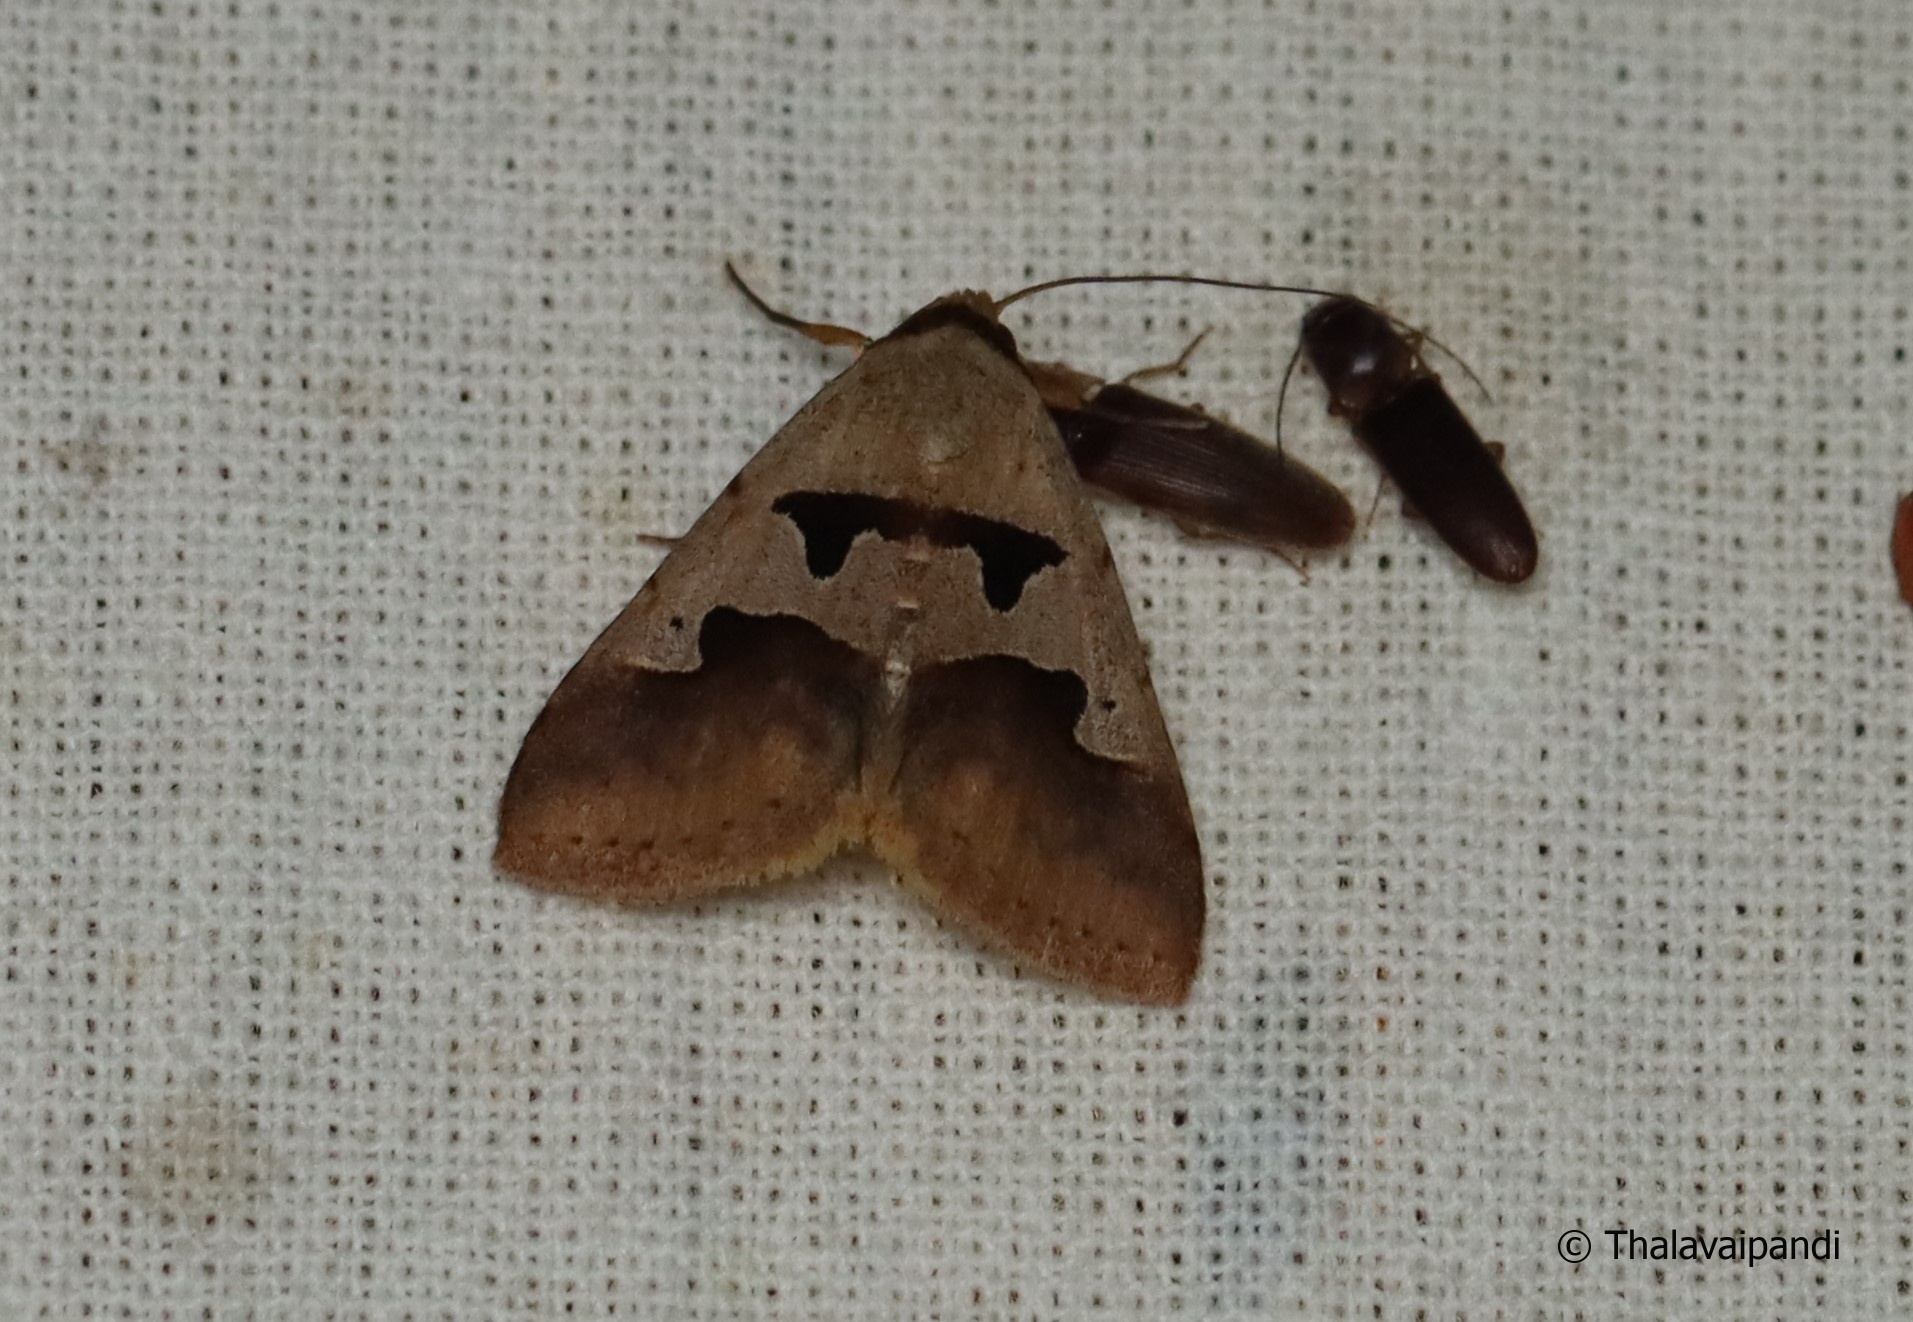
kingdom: Animalia
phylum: Arthropoda
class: Insecta
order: Lepidoptera
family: Erebidae
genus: Crithote
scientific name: Crithote horridipes
